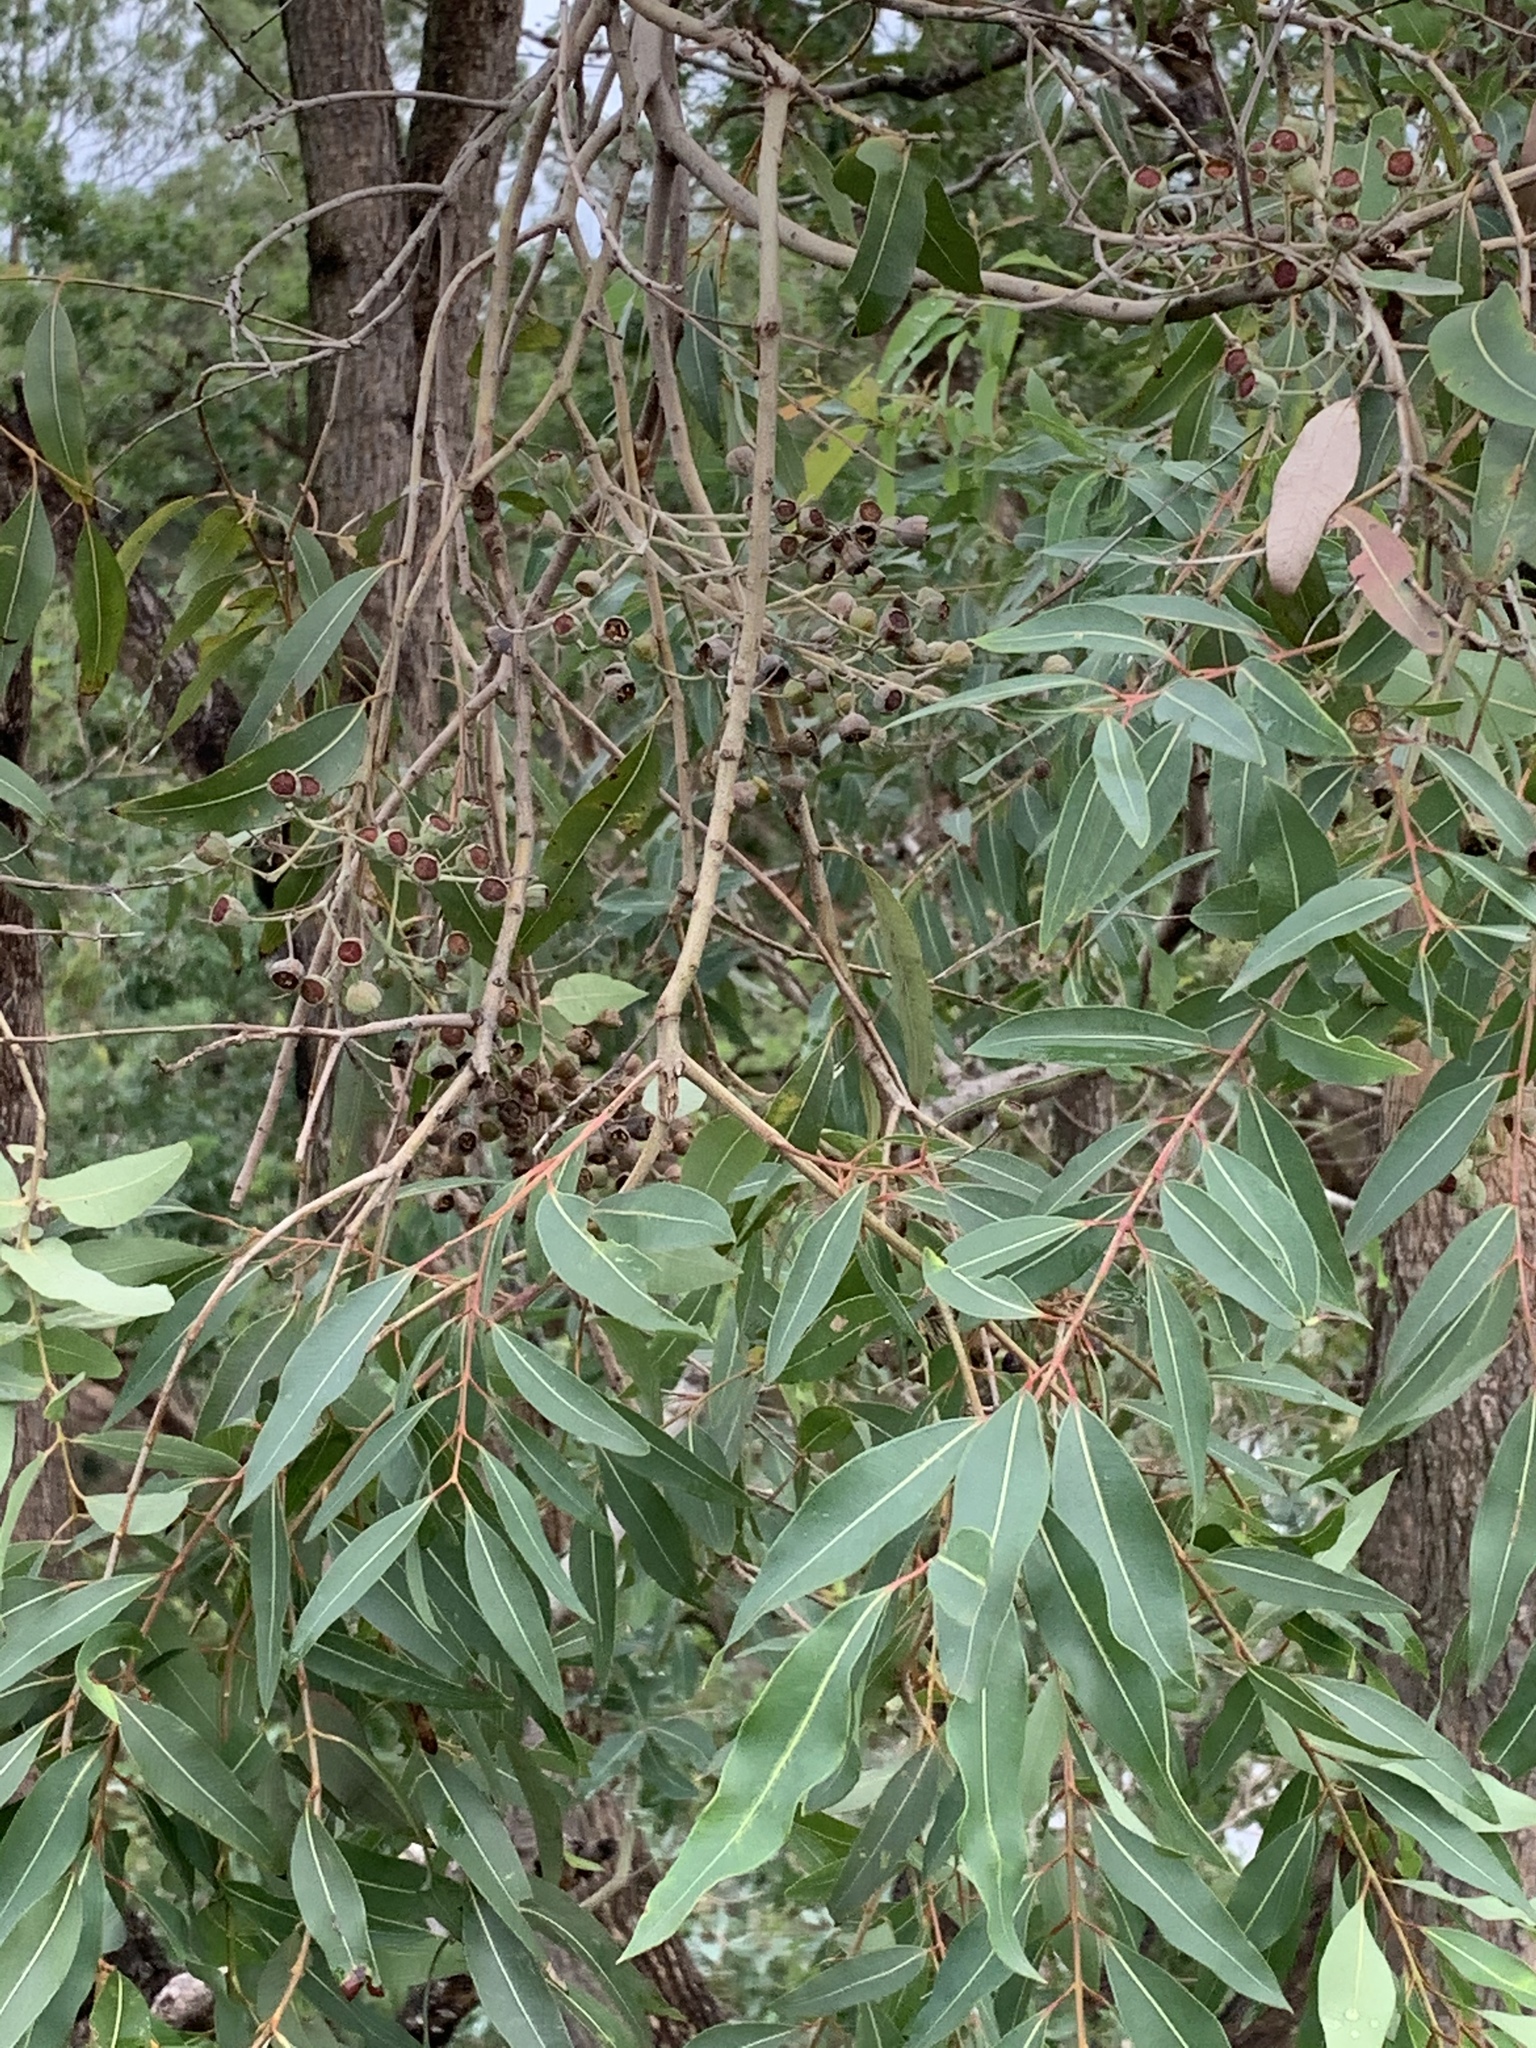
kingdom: Plantae
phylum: Tracheophyta
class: Magnoliopsida
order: Myrtales
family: Myrtaceae
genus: Angophora
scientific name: Angophora floribunda
